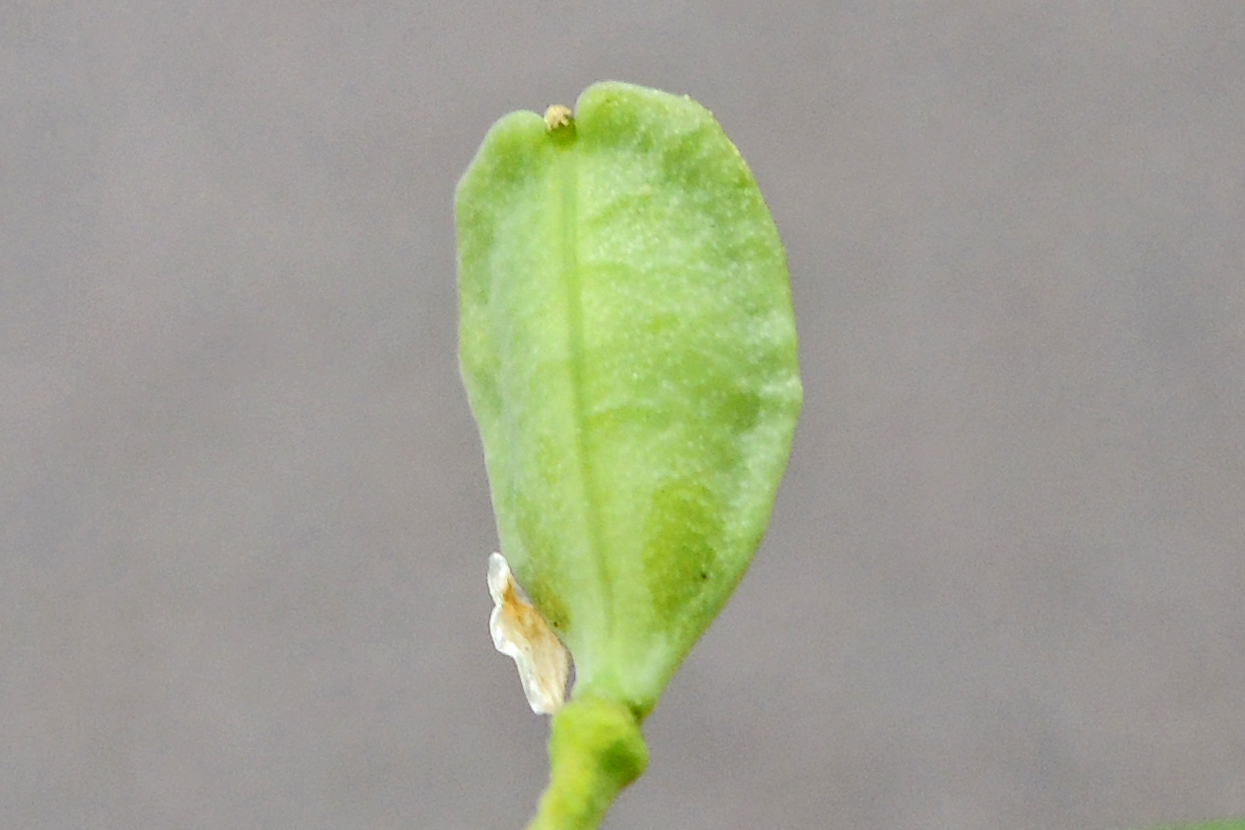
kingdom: Plantae
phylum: Tracheophyta
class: Magnoliopsida
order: Brassicales
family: Brassicaceae
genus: Mummenhoffia
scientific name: Mummenhoffia alliacea
